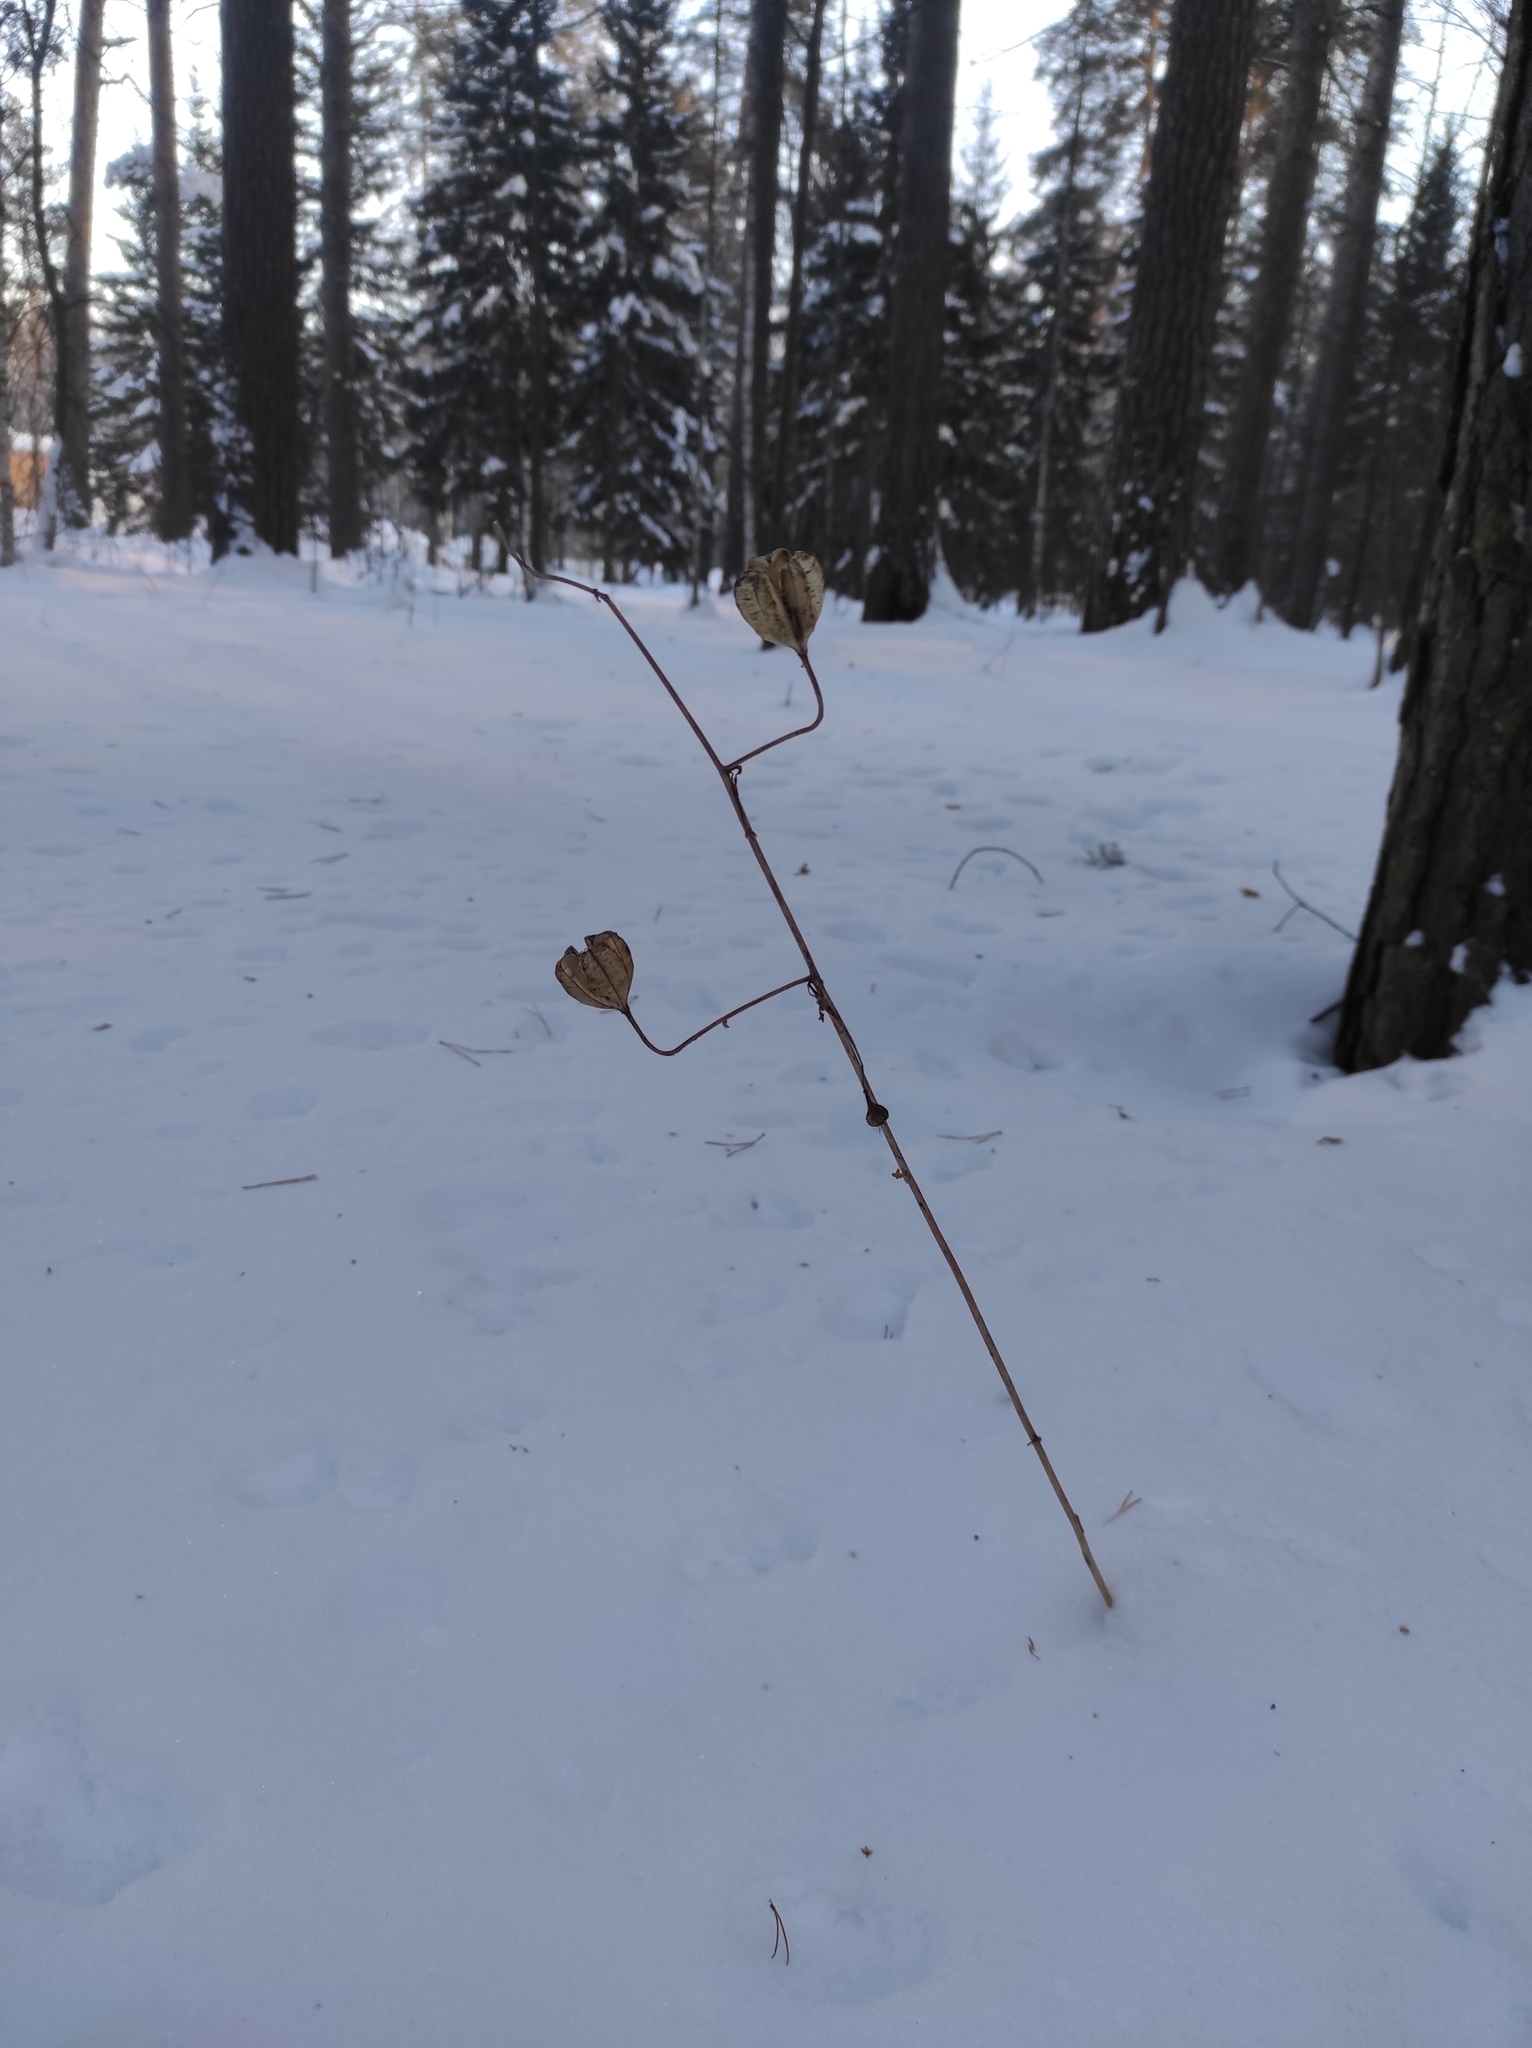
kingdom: Plantae
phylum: Tracheophyta
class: Liliopsida
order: Liliales
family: Liliaceae
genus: Lilium
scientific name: Lilium martagon
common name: Martagon lily
